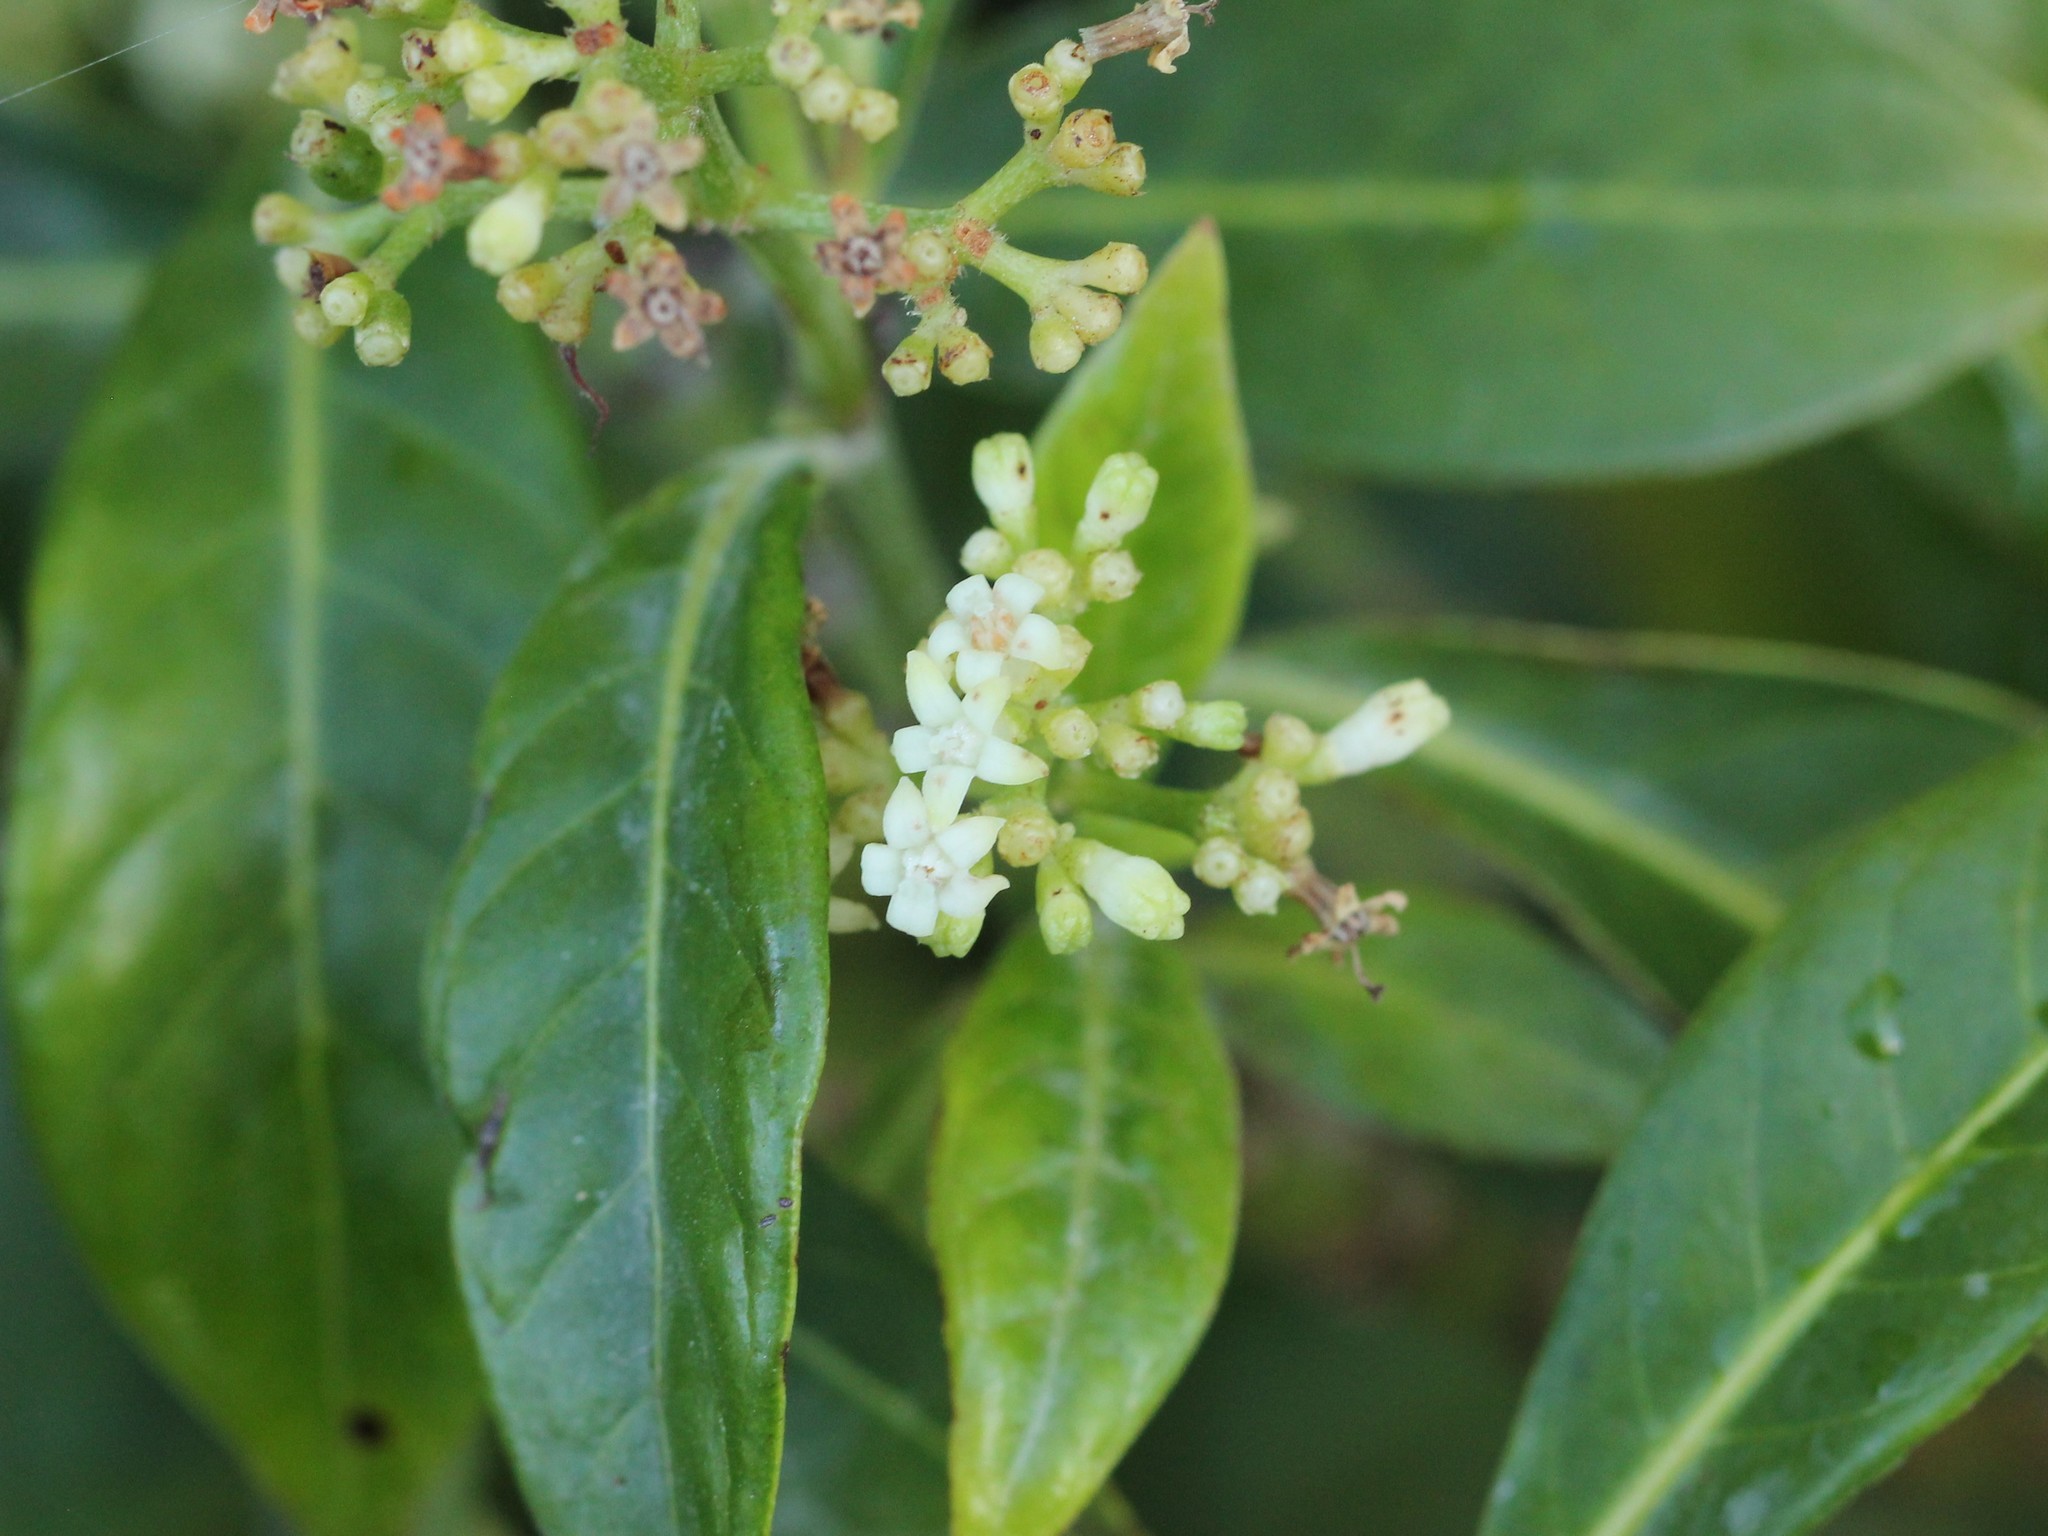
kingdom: Plantae
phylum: Tracheophyta
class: Magnoliopsida
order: Gentianales
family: Rubiaceae
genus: Psychotria
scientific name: Psychotria ligustrifolia
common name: Bahama wild coffee
